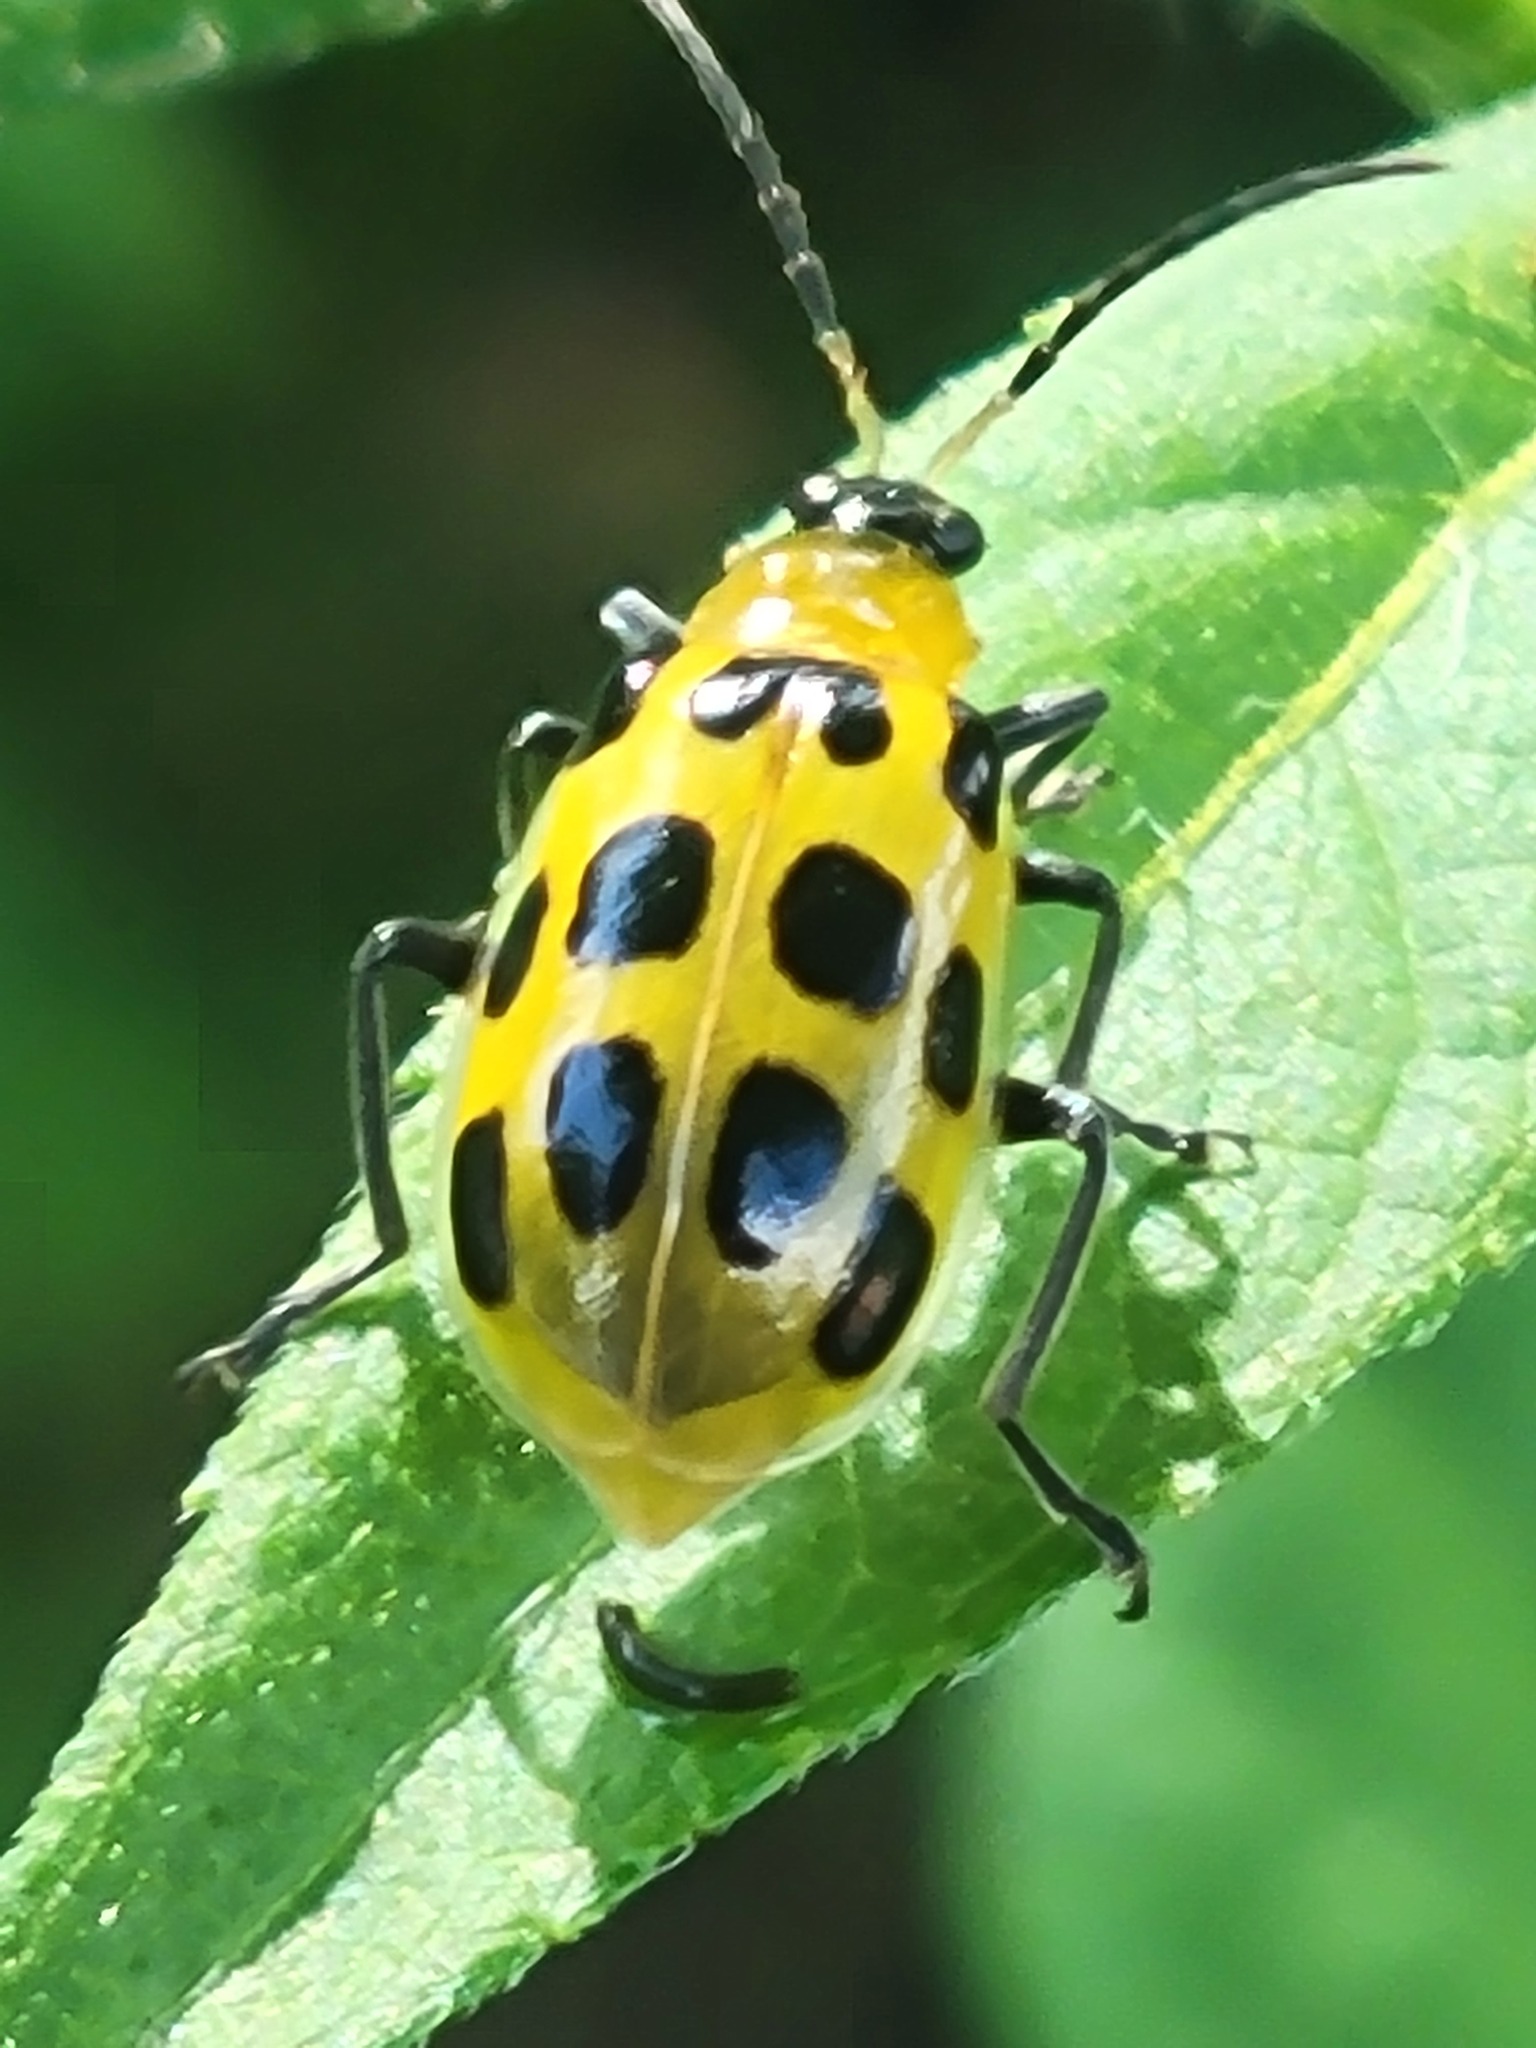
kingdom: Animalia
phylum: Arthropoda
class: Insecta
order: Coleoptera
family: Chrysomelidae
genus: Diabrotica
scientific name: Diabrotica undecimpunctata
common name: Spotted cucumber beetle
